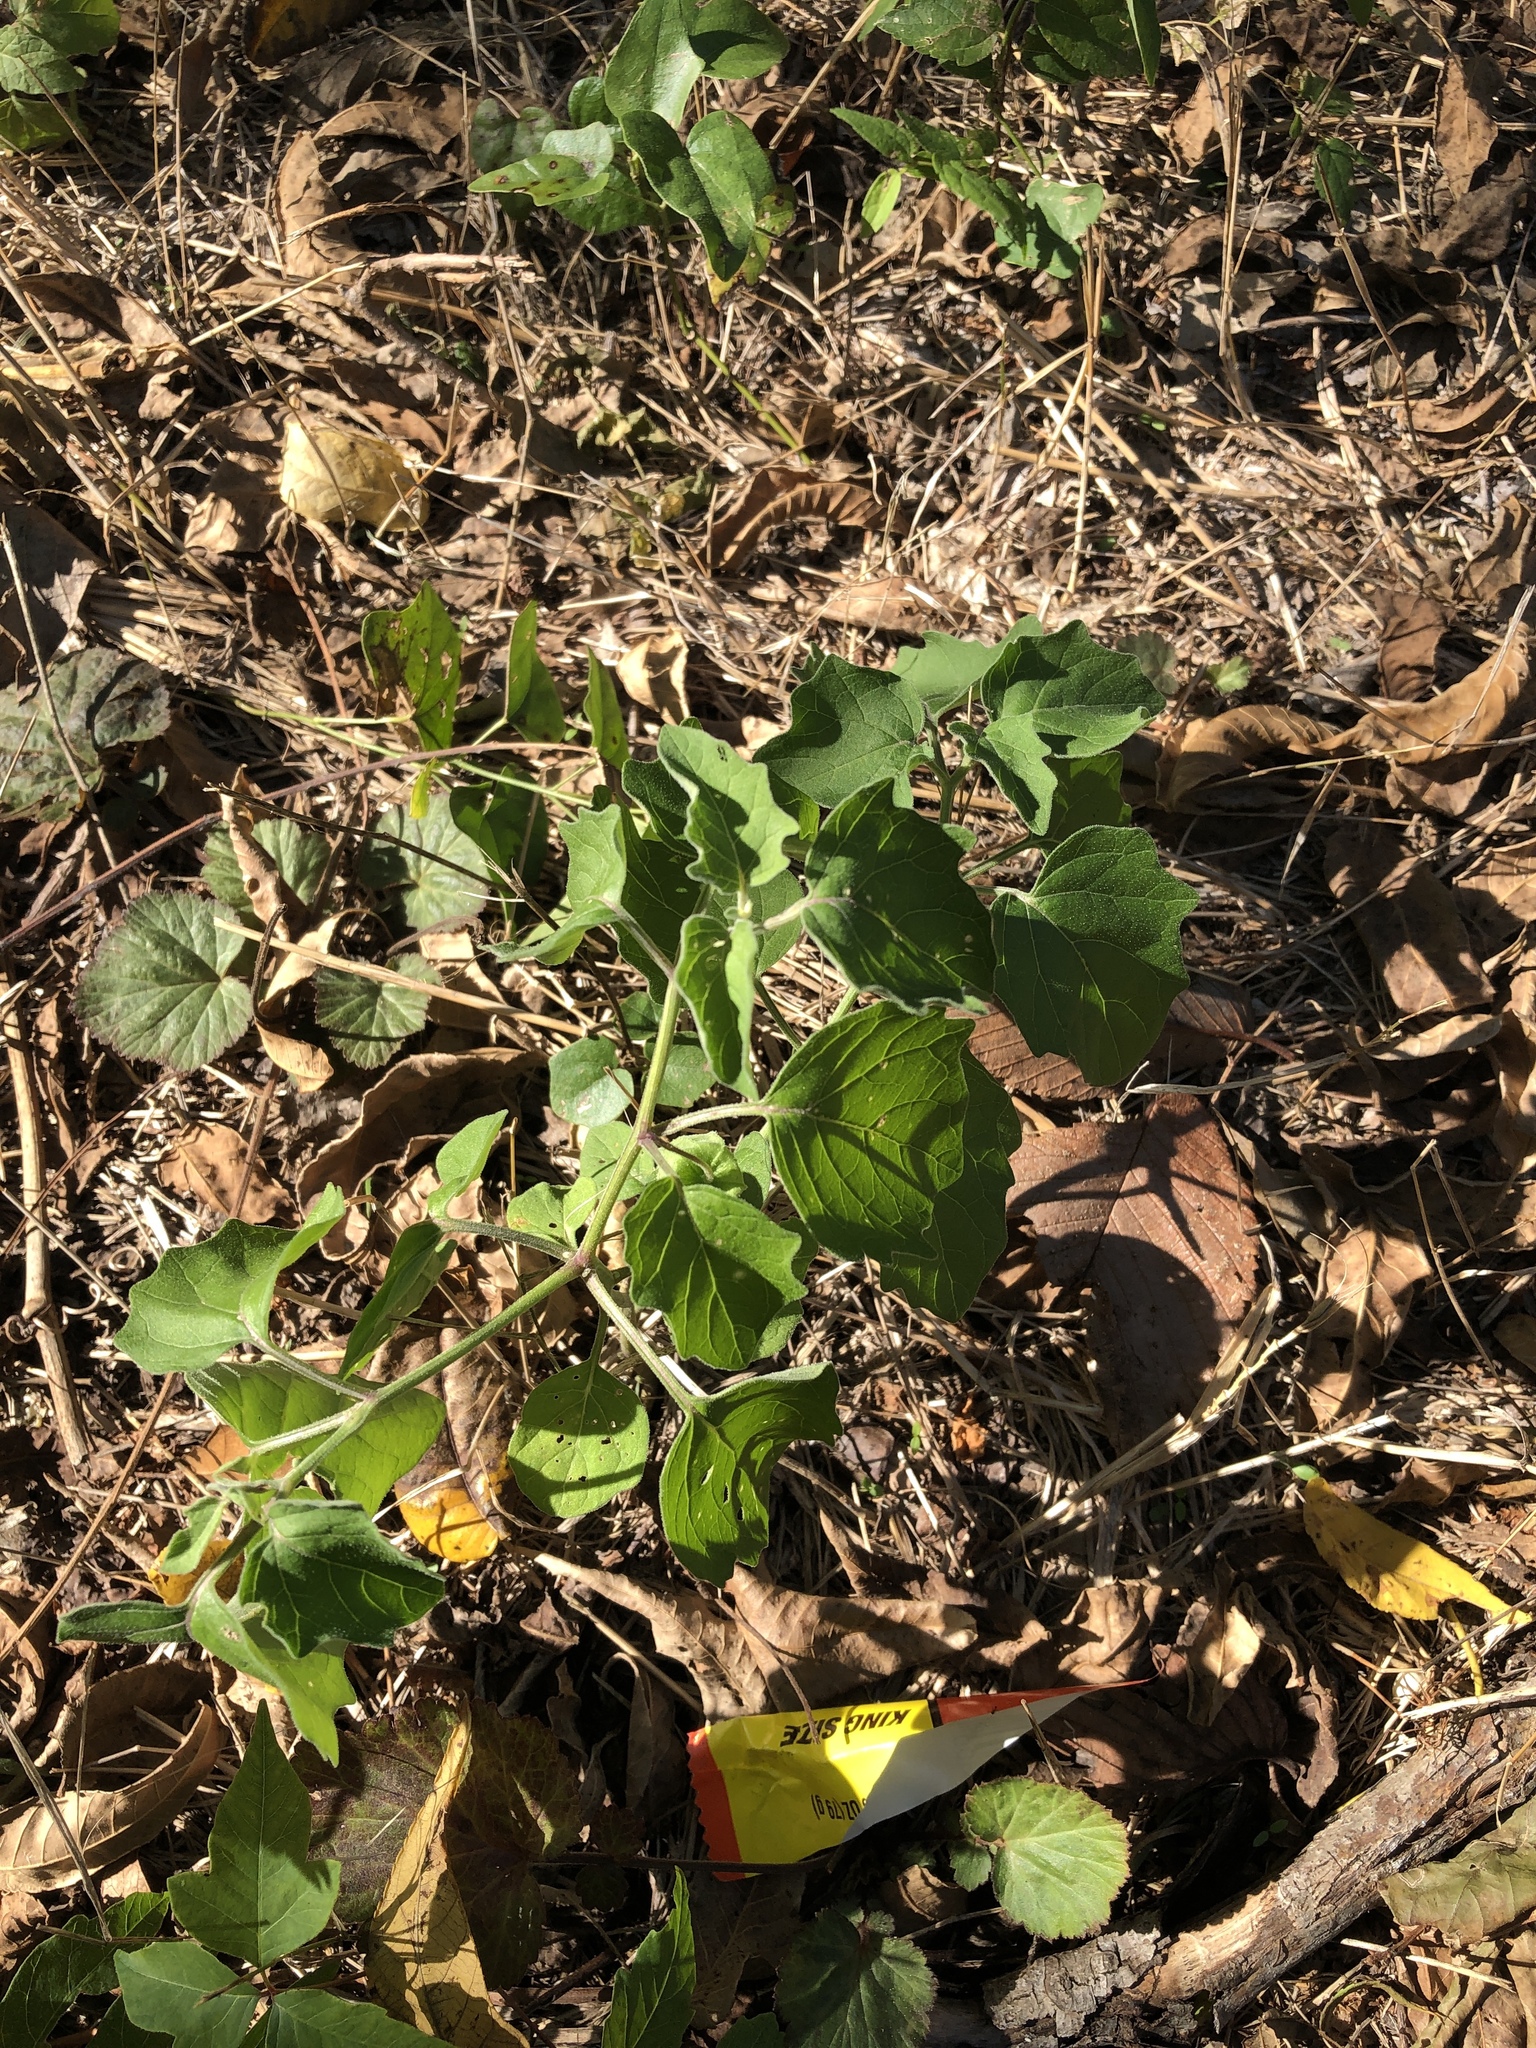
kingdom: Plantae
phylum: Tracheophyta
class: Magnoliopsida
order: Solanales
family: Solanaceae
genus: Physalis
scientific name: Physalis cinerascens
